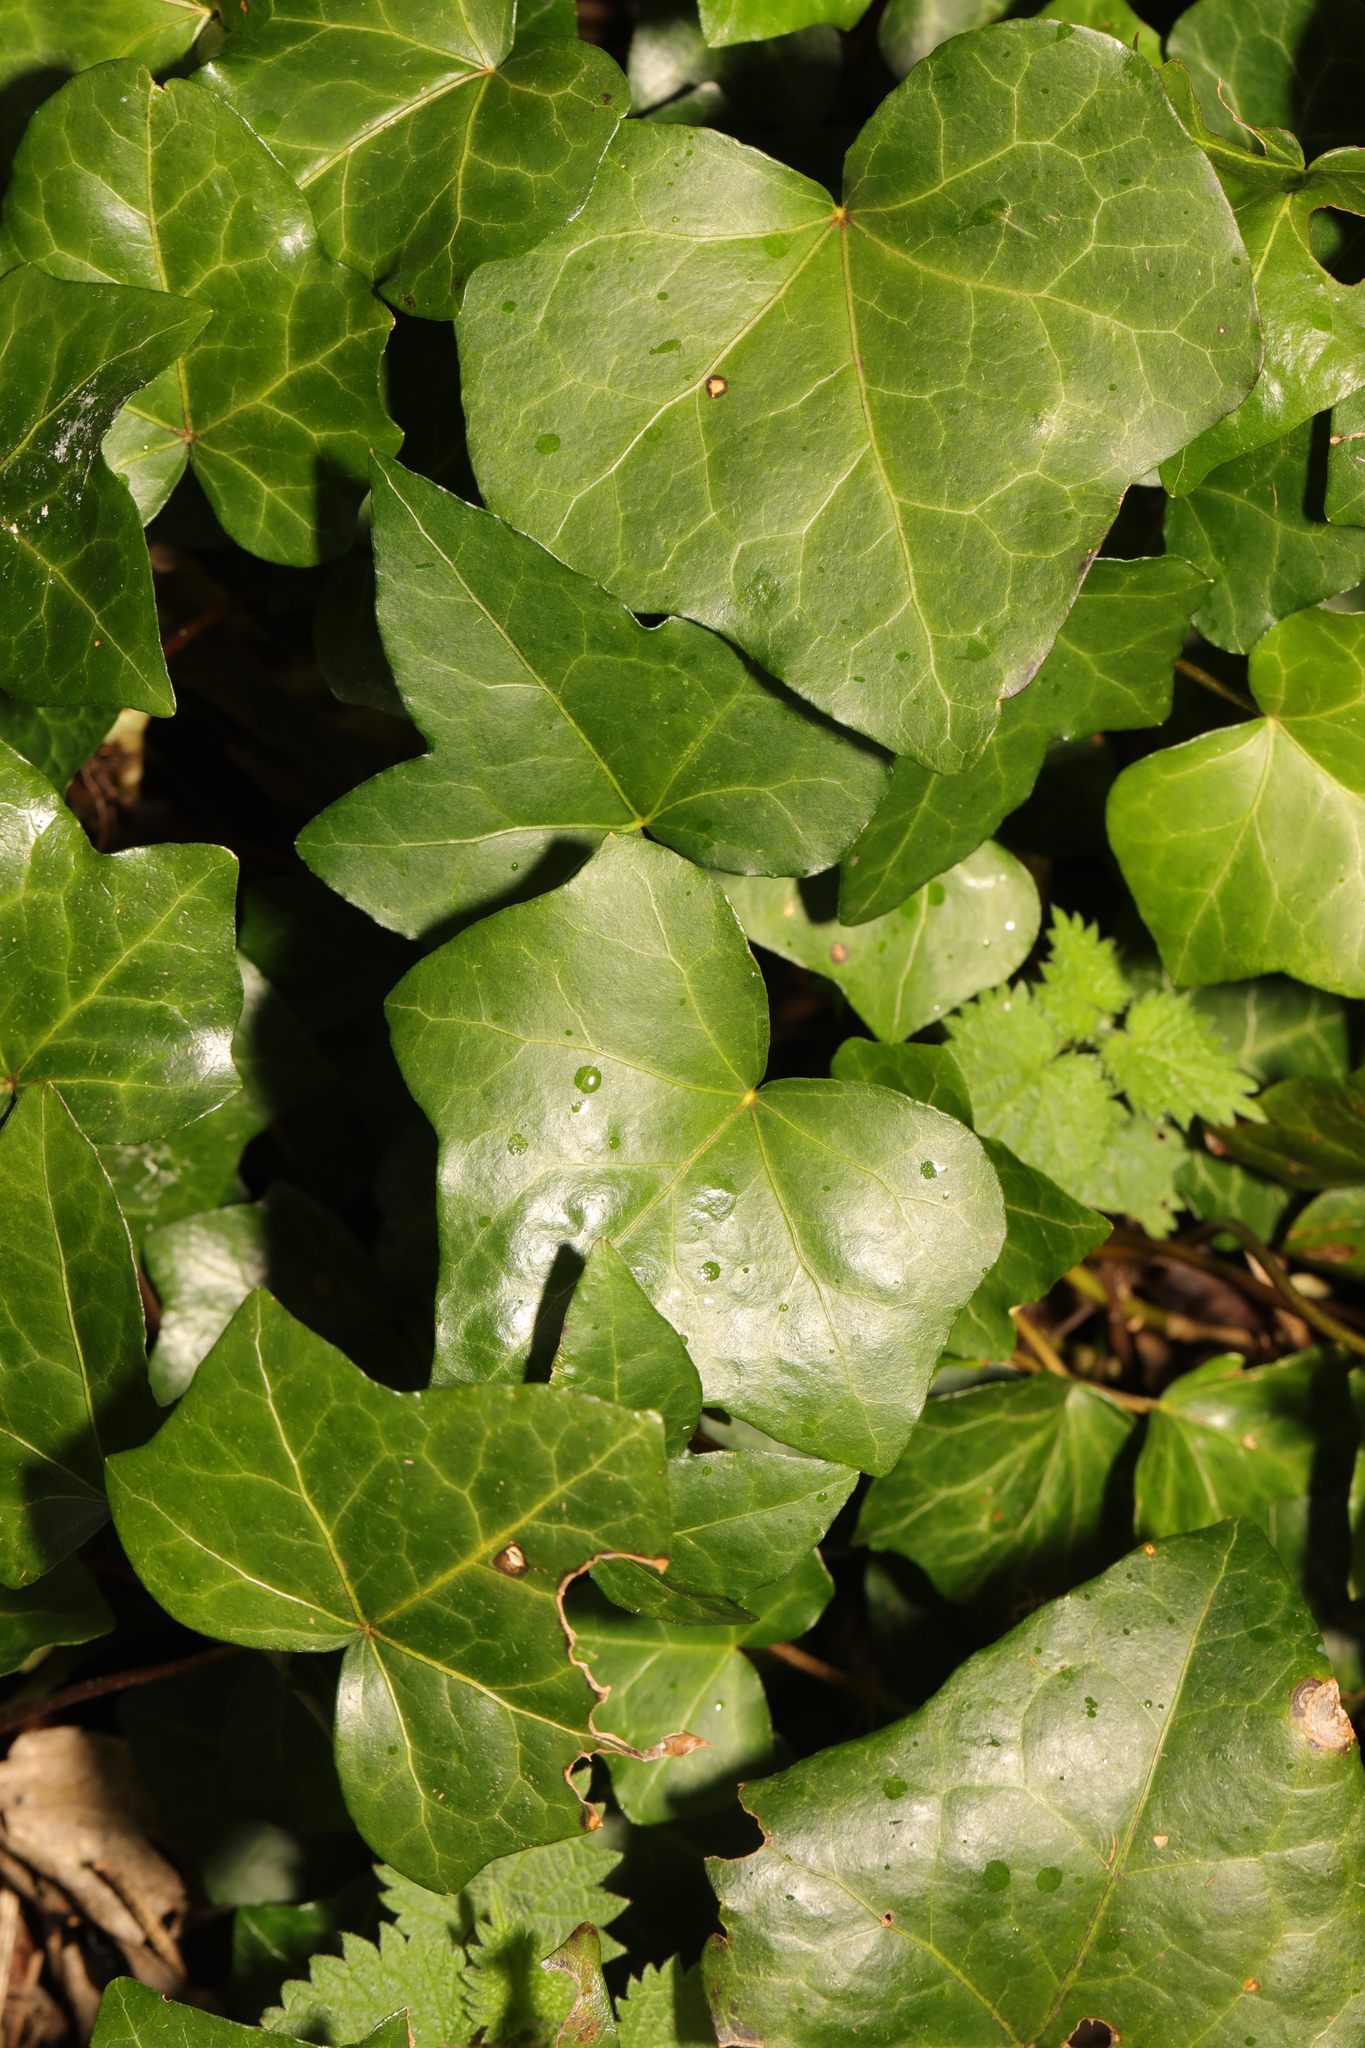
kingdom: Plantae
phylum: Tracheophyta
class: Magnoliopsida
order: Apiales
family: Araliaceae
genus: Hedera
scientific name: Hedera helix
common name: Ivy
